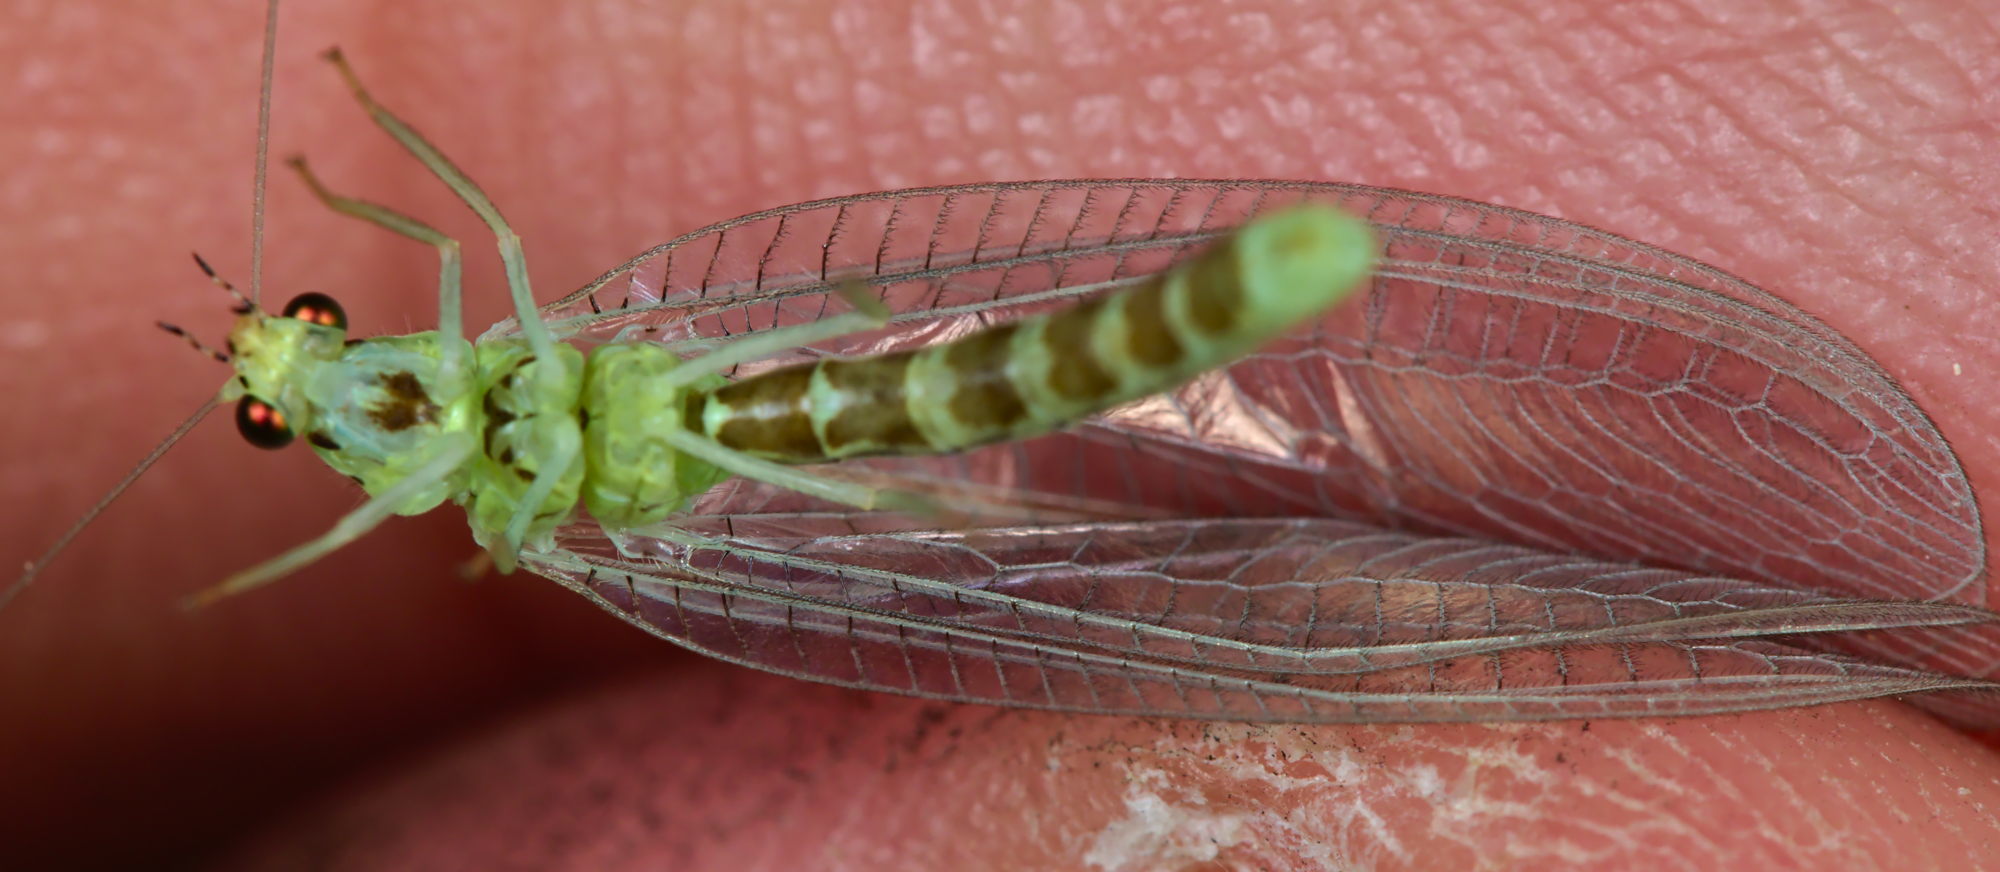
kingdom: Animalia
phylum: Arthropoda
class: Insecta
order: Neuroptera
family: Chrysopidae
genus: Pseudomallada
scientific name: Pseudomallada ventralis
